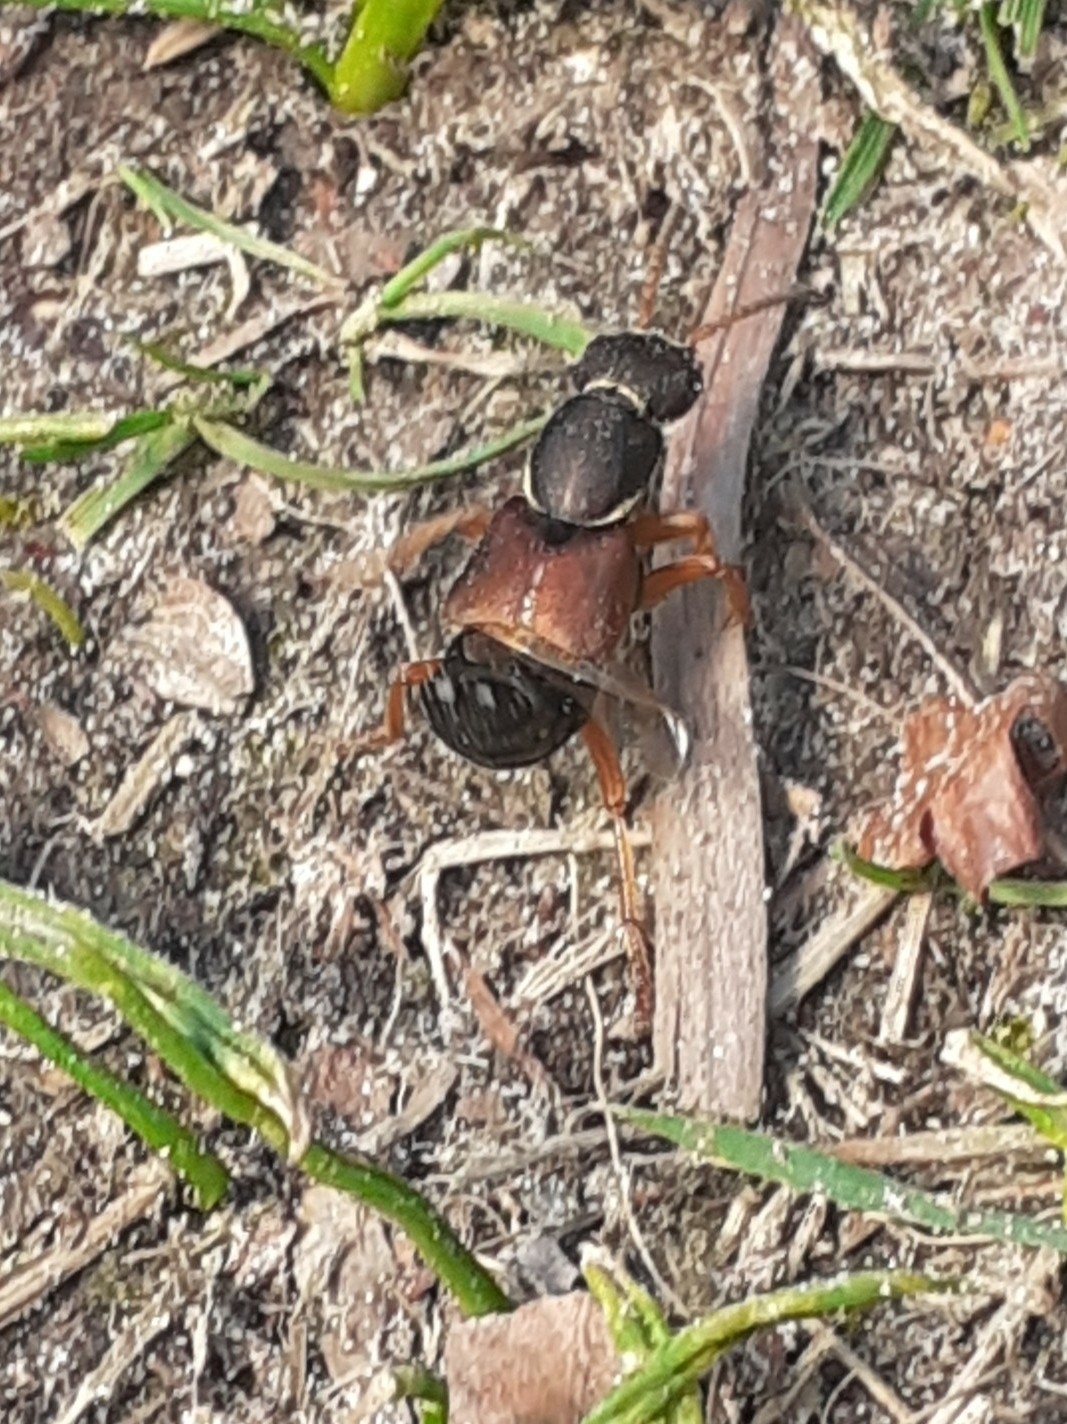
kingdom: Animalia
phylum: Arthropoda
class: Insecta
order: Coleoptera
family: Staphylinidae
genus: Staphylinus
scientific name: Staphylinus dimidiaticornis
